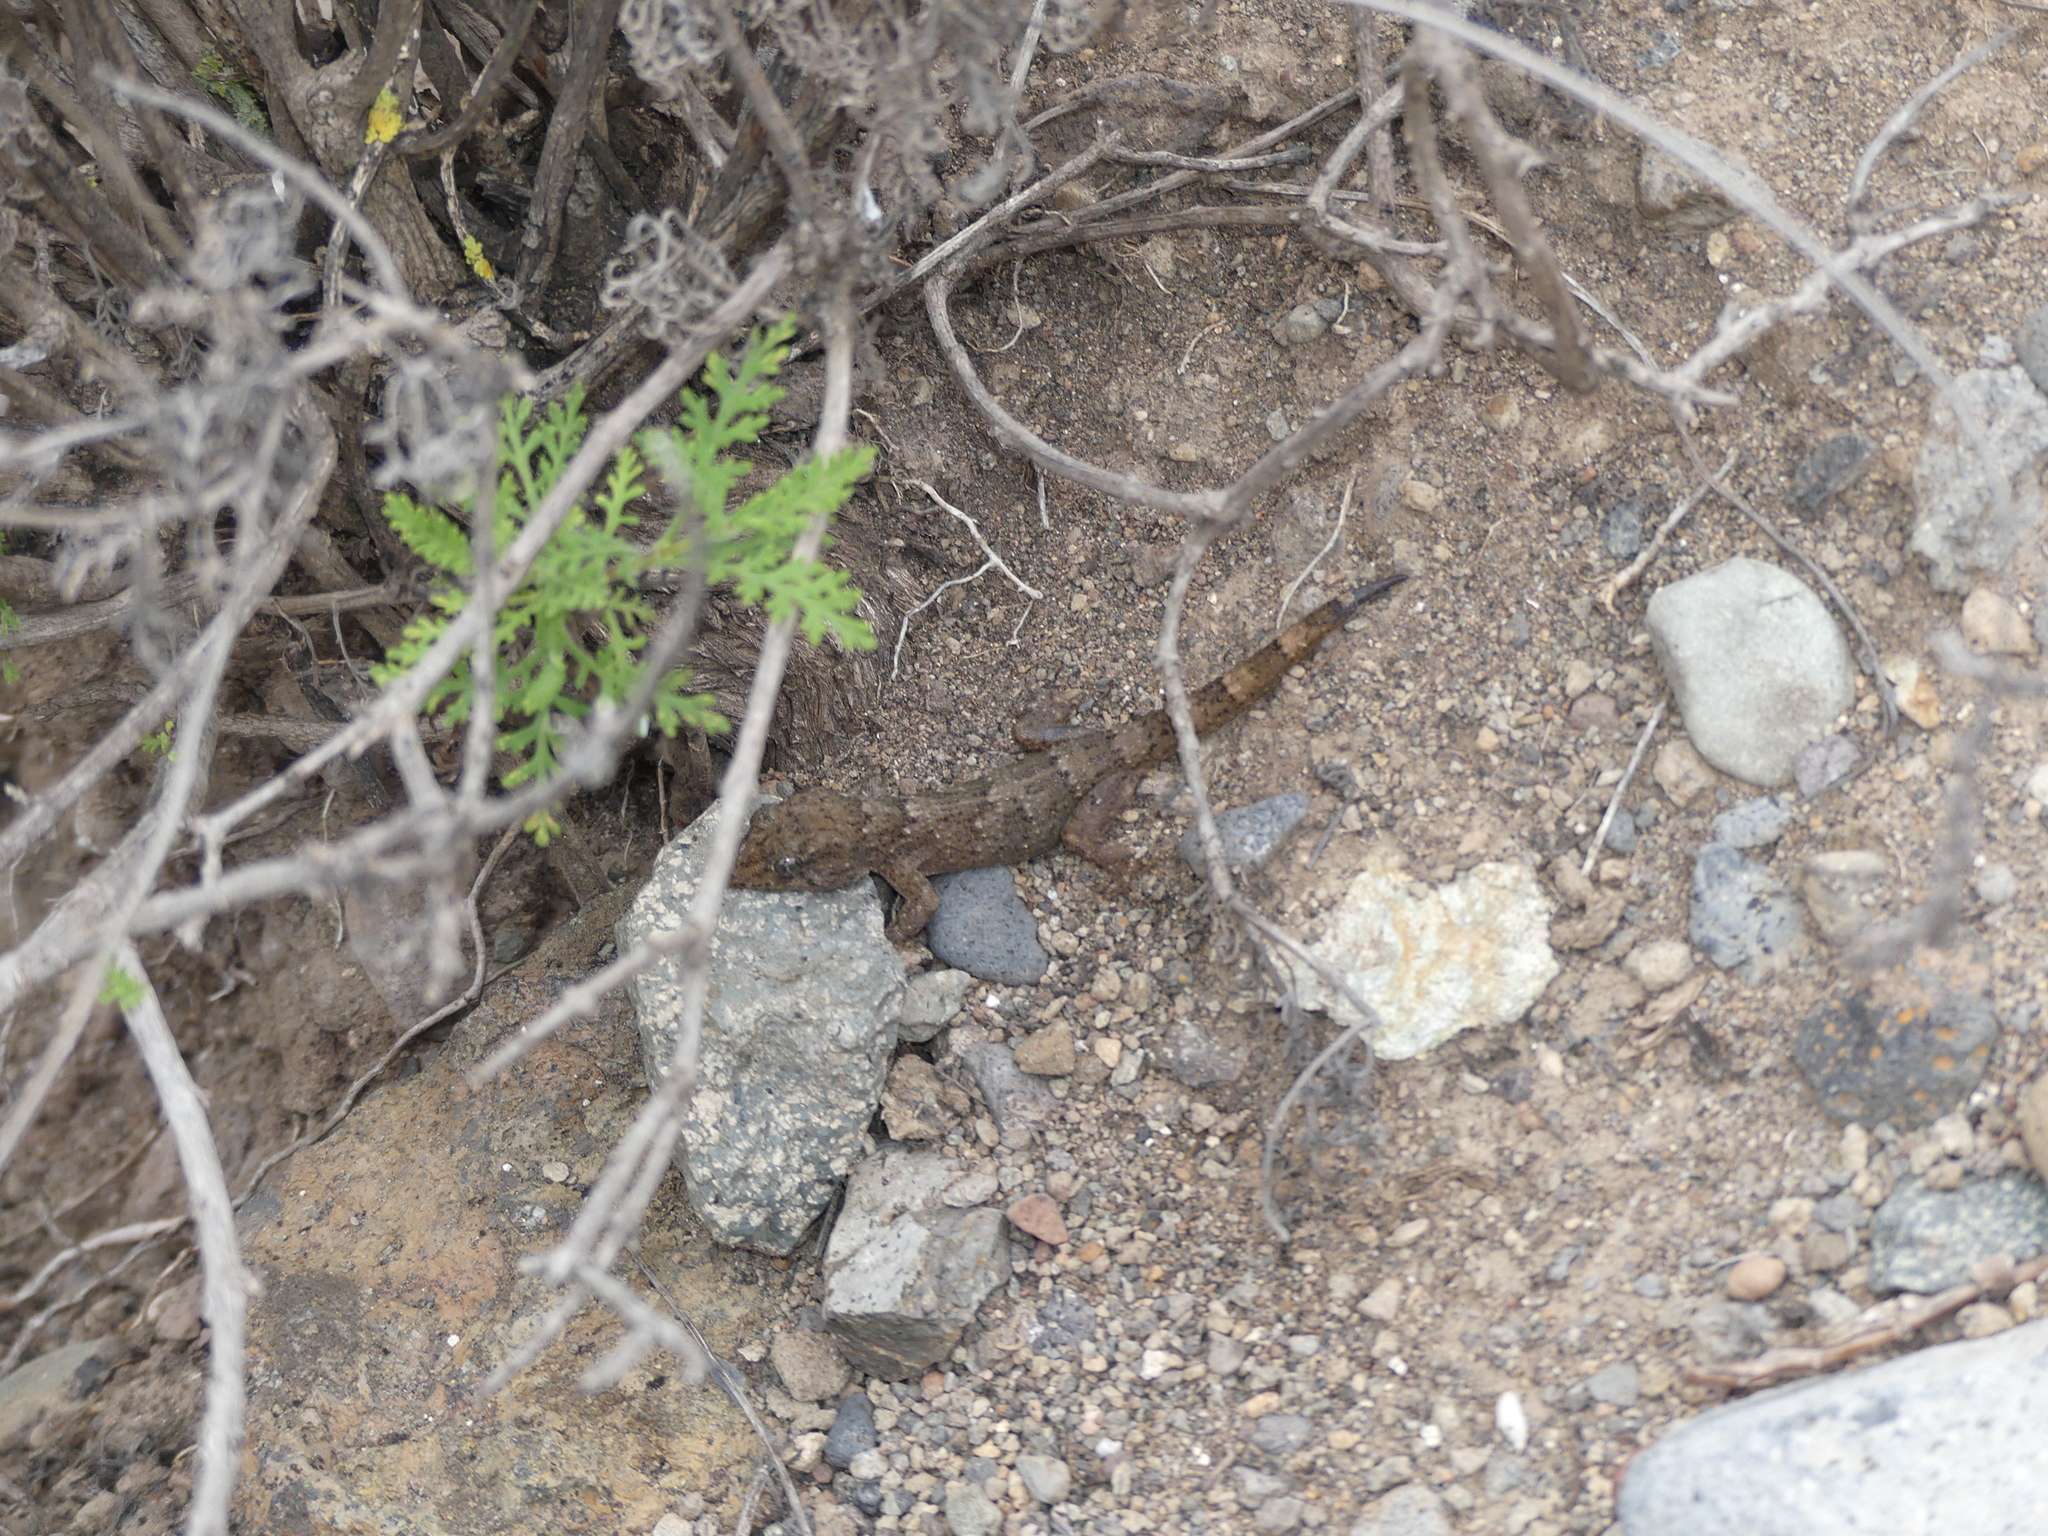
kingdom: Animalia
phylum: Chordata
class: Squamata
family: Phyllodactylidae
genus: Tarentola
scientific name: Tarentola boettgeri
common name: Boettger's wall gecko
